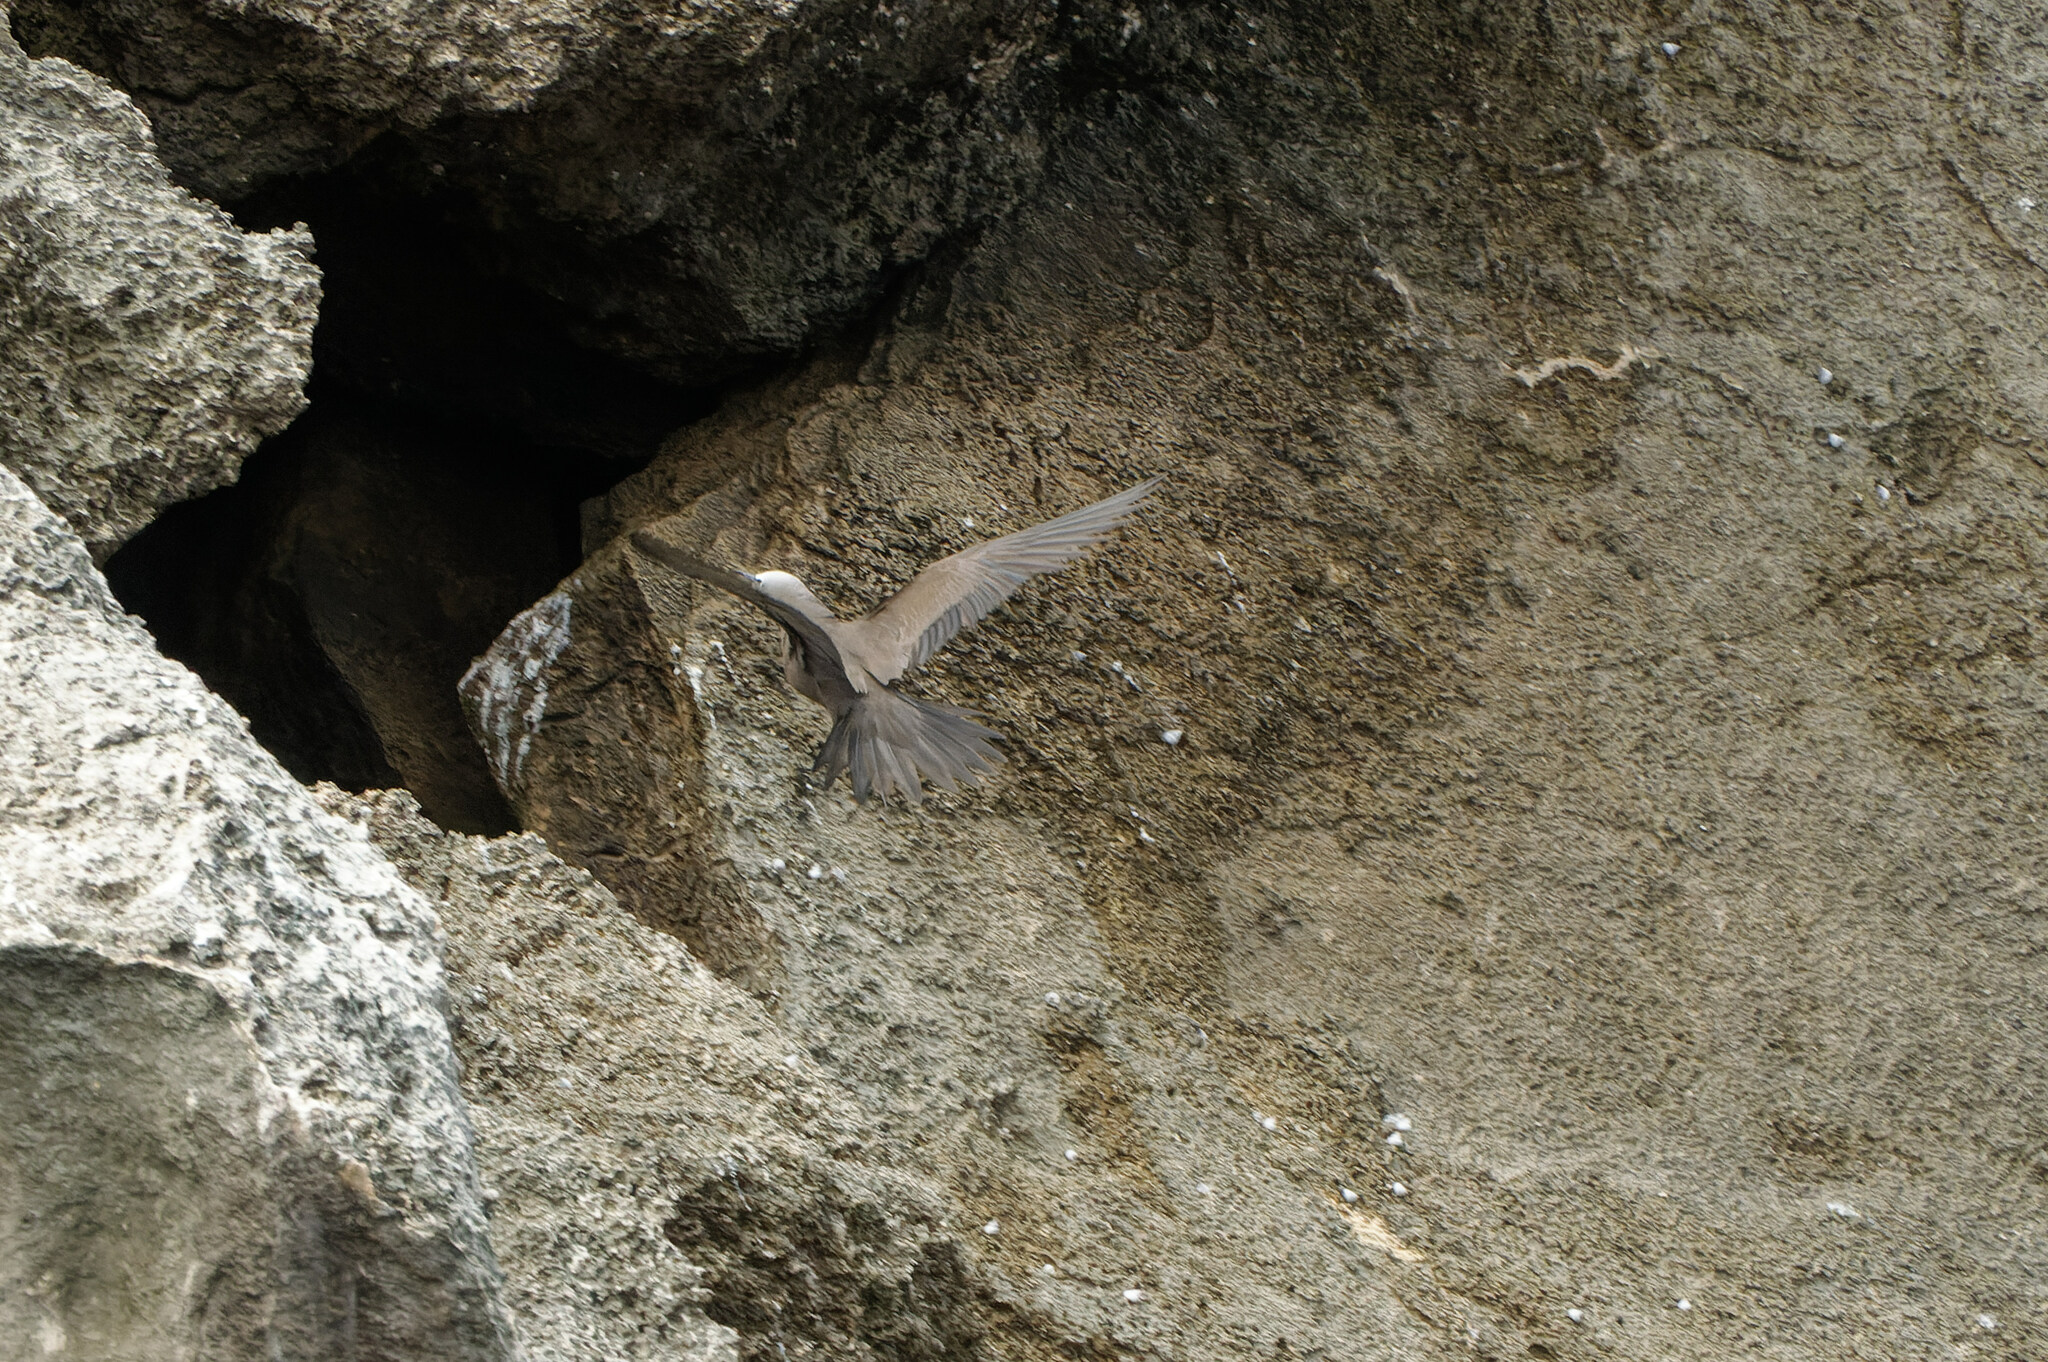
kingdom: Animalia
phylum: Chordata
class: Aves
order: Charadriiformes
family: Laridae
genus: Anous
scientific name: Anous stolidus
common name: Brown noddy
